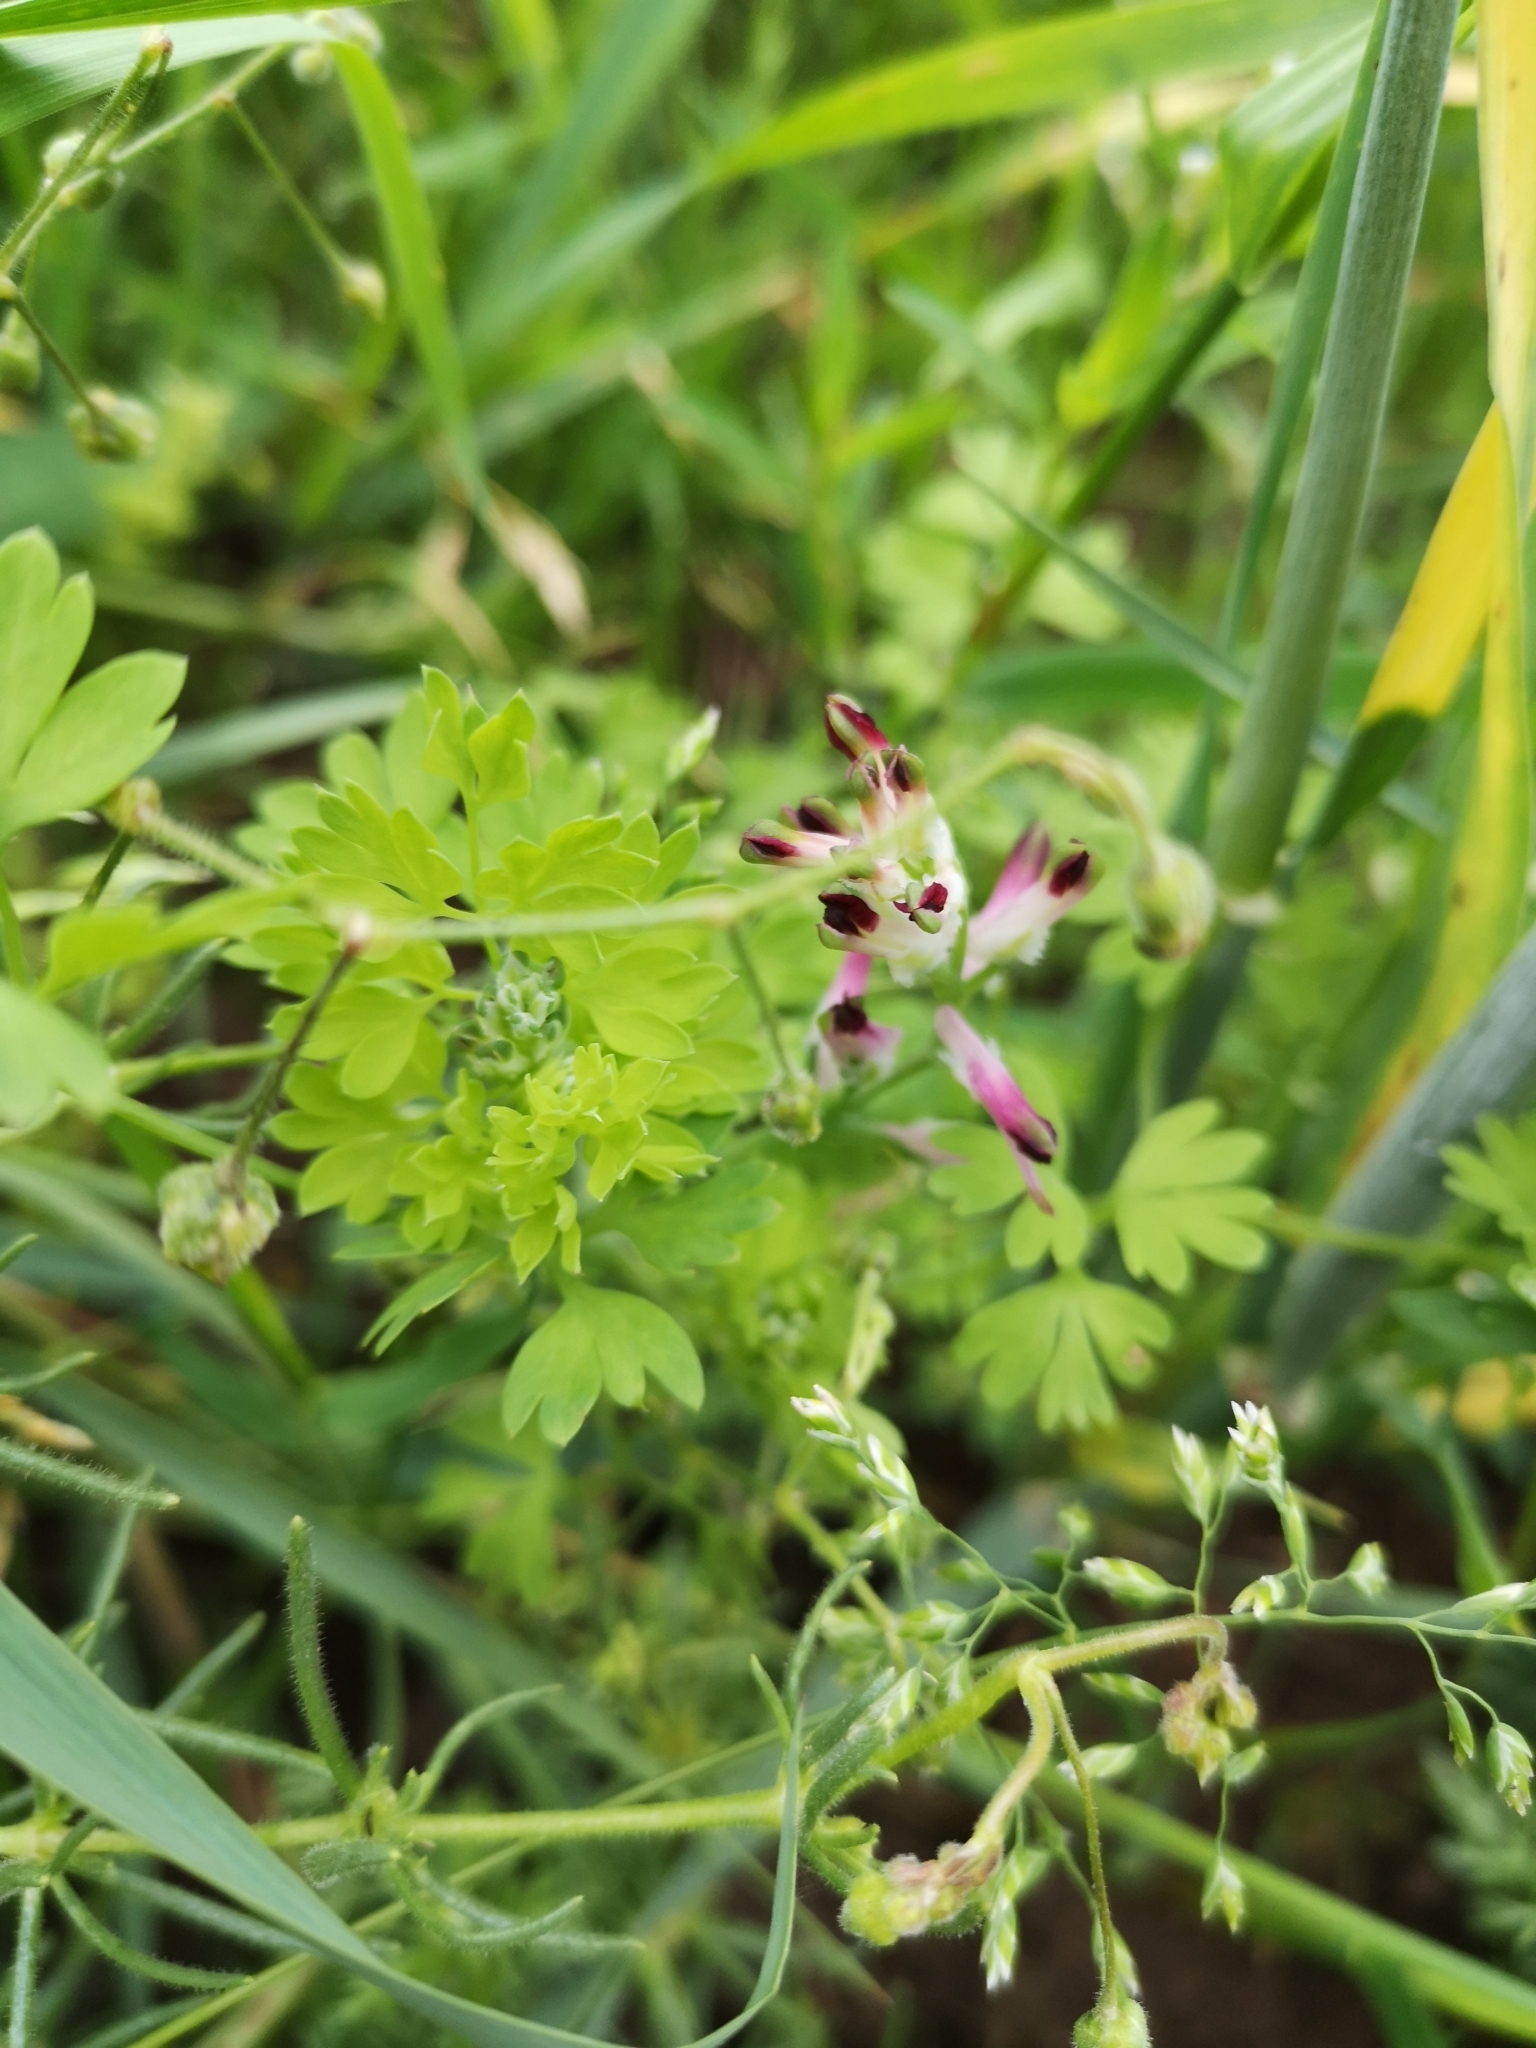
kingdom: Plantae
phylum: Tracheophyta
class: Magnoliopsida
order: Ranunculales
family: Papaveraceae
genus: Fumaria
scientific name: Fumaria muralis
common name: Common ramping-fumitory
